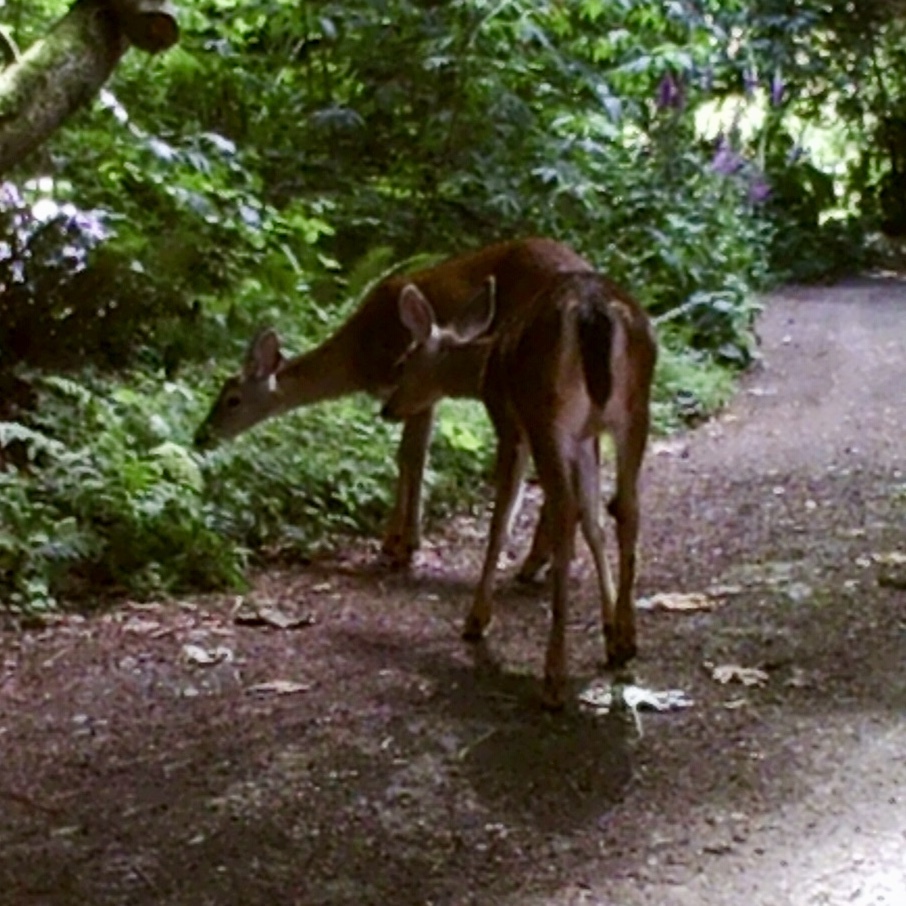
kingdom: Animalia
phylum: Chordata
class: Mammalia
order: Artiodactyla
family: Cervidae
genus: Odocoileus
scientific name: Odocoileus hemionus
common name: Mule deer
